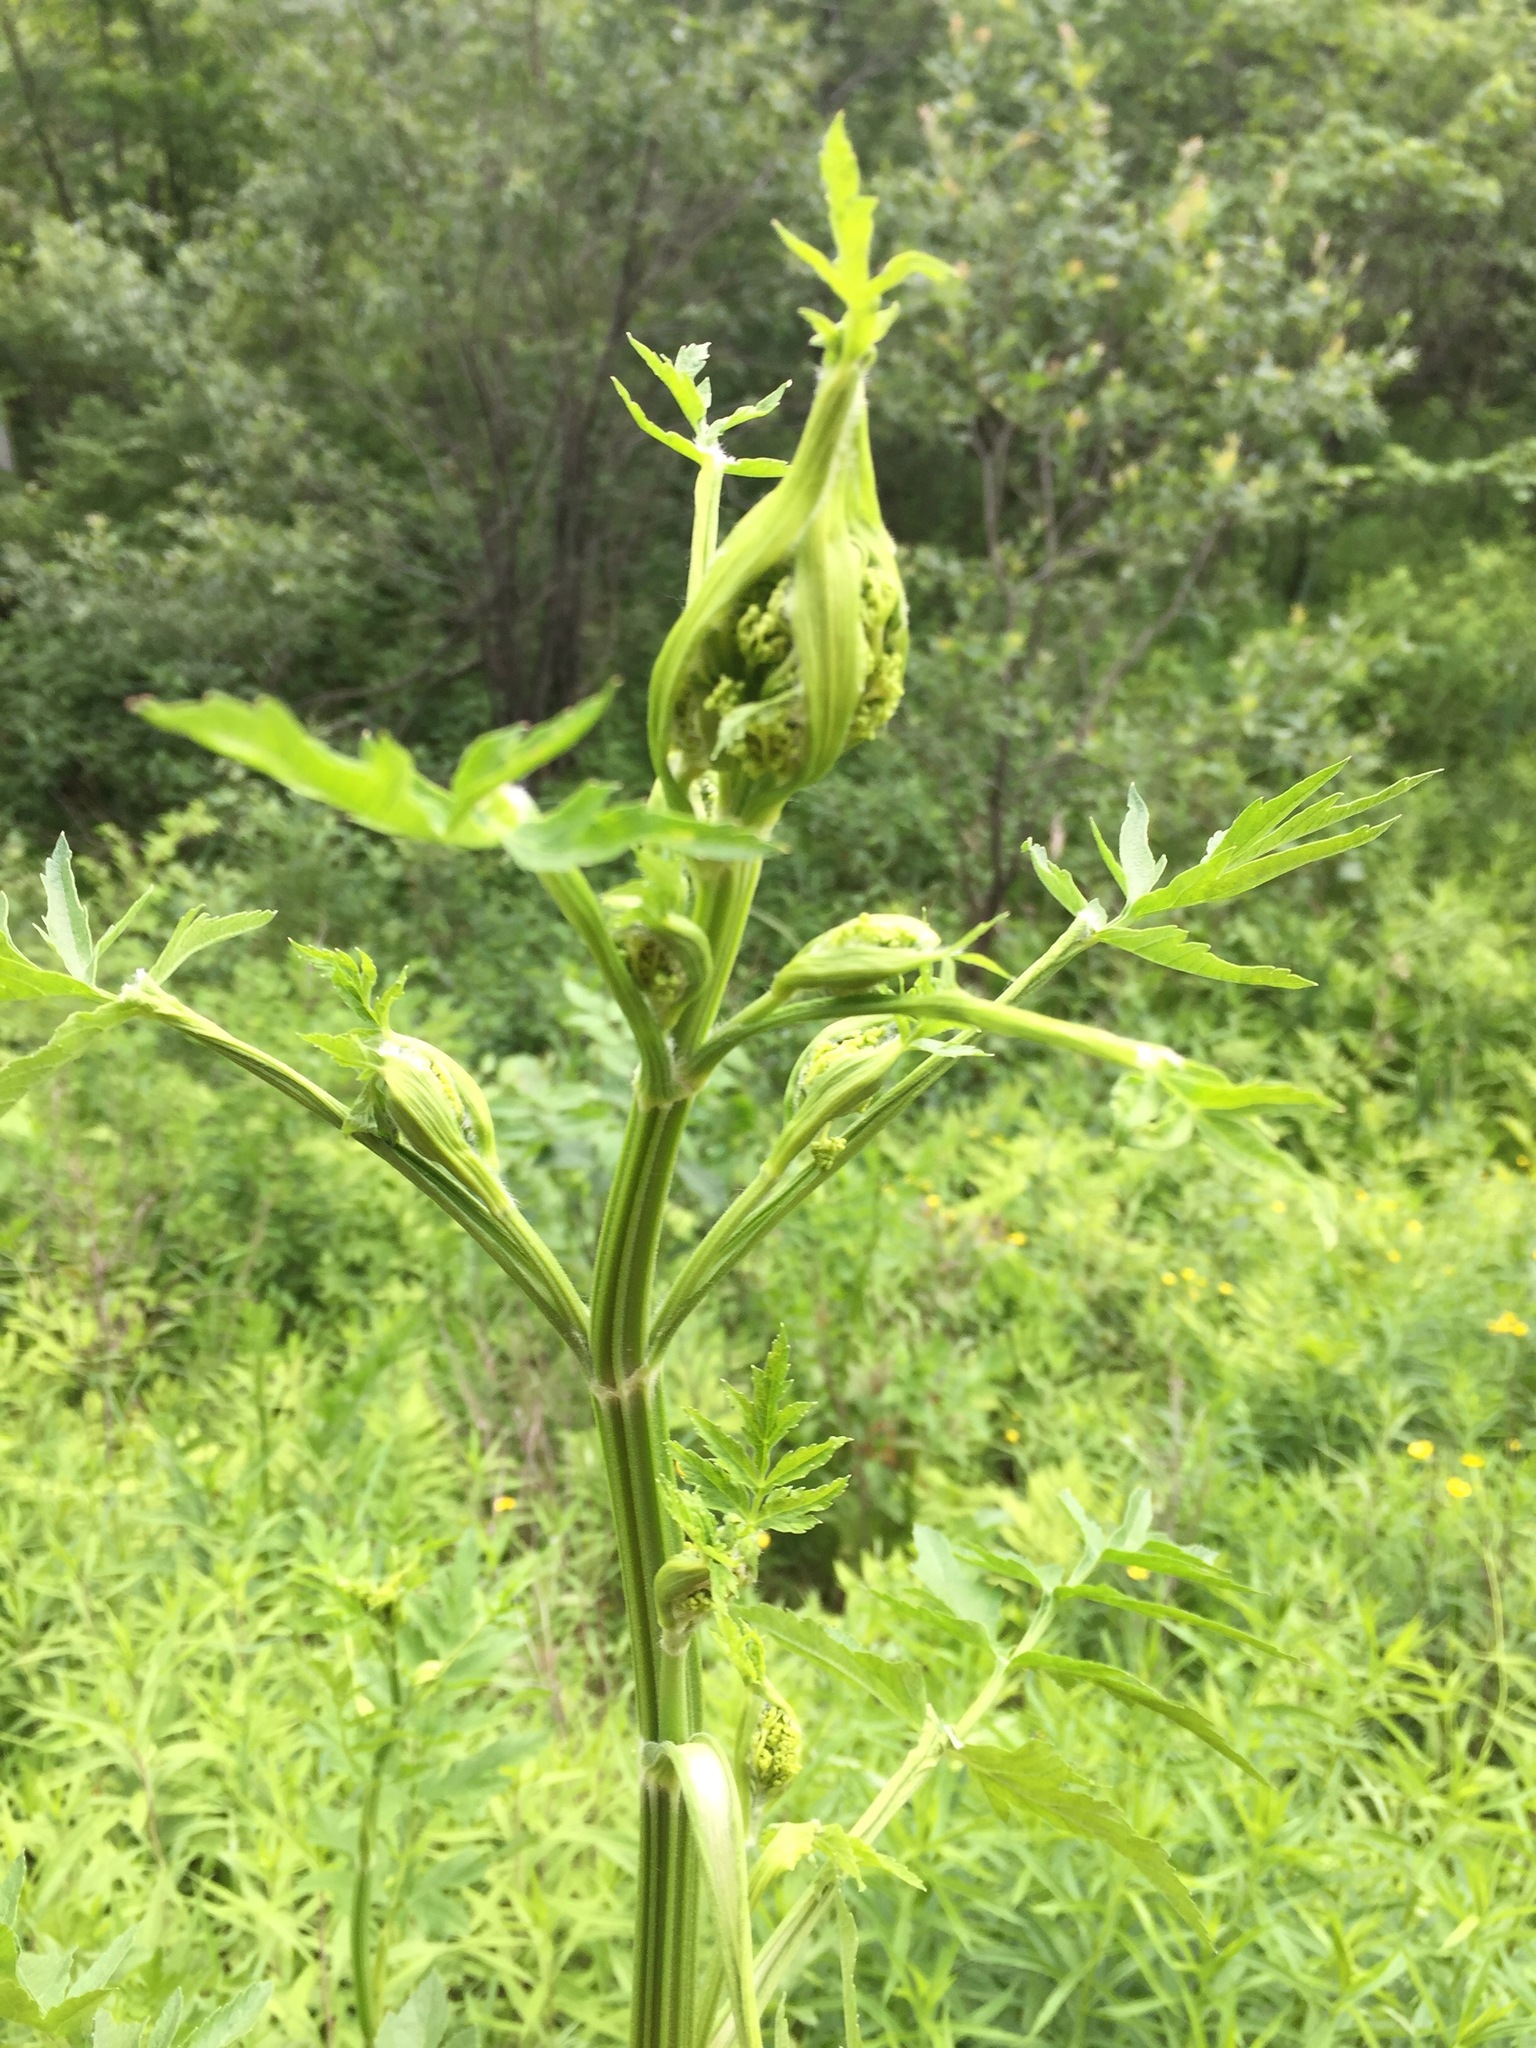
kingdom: Plantae
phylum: Tracheophyta
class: Magnoliopsida
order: Apiales
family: Apiaceae
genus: Pastinaca
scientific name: Pastinaca sativa
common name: Wild parsnip
